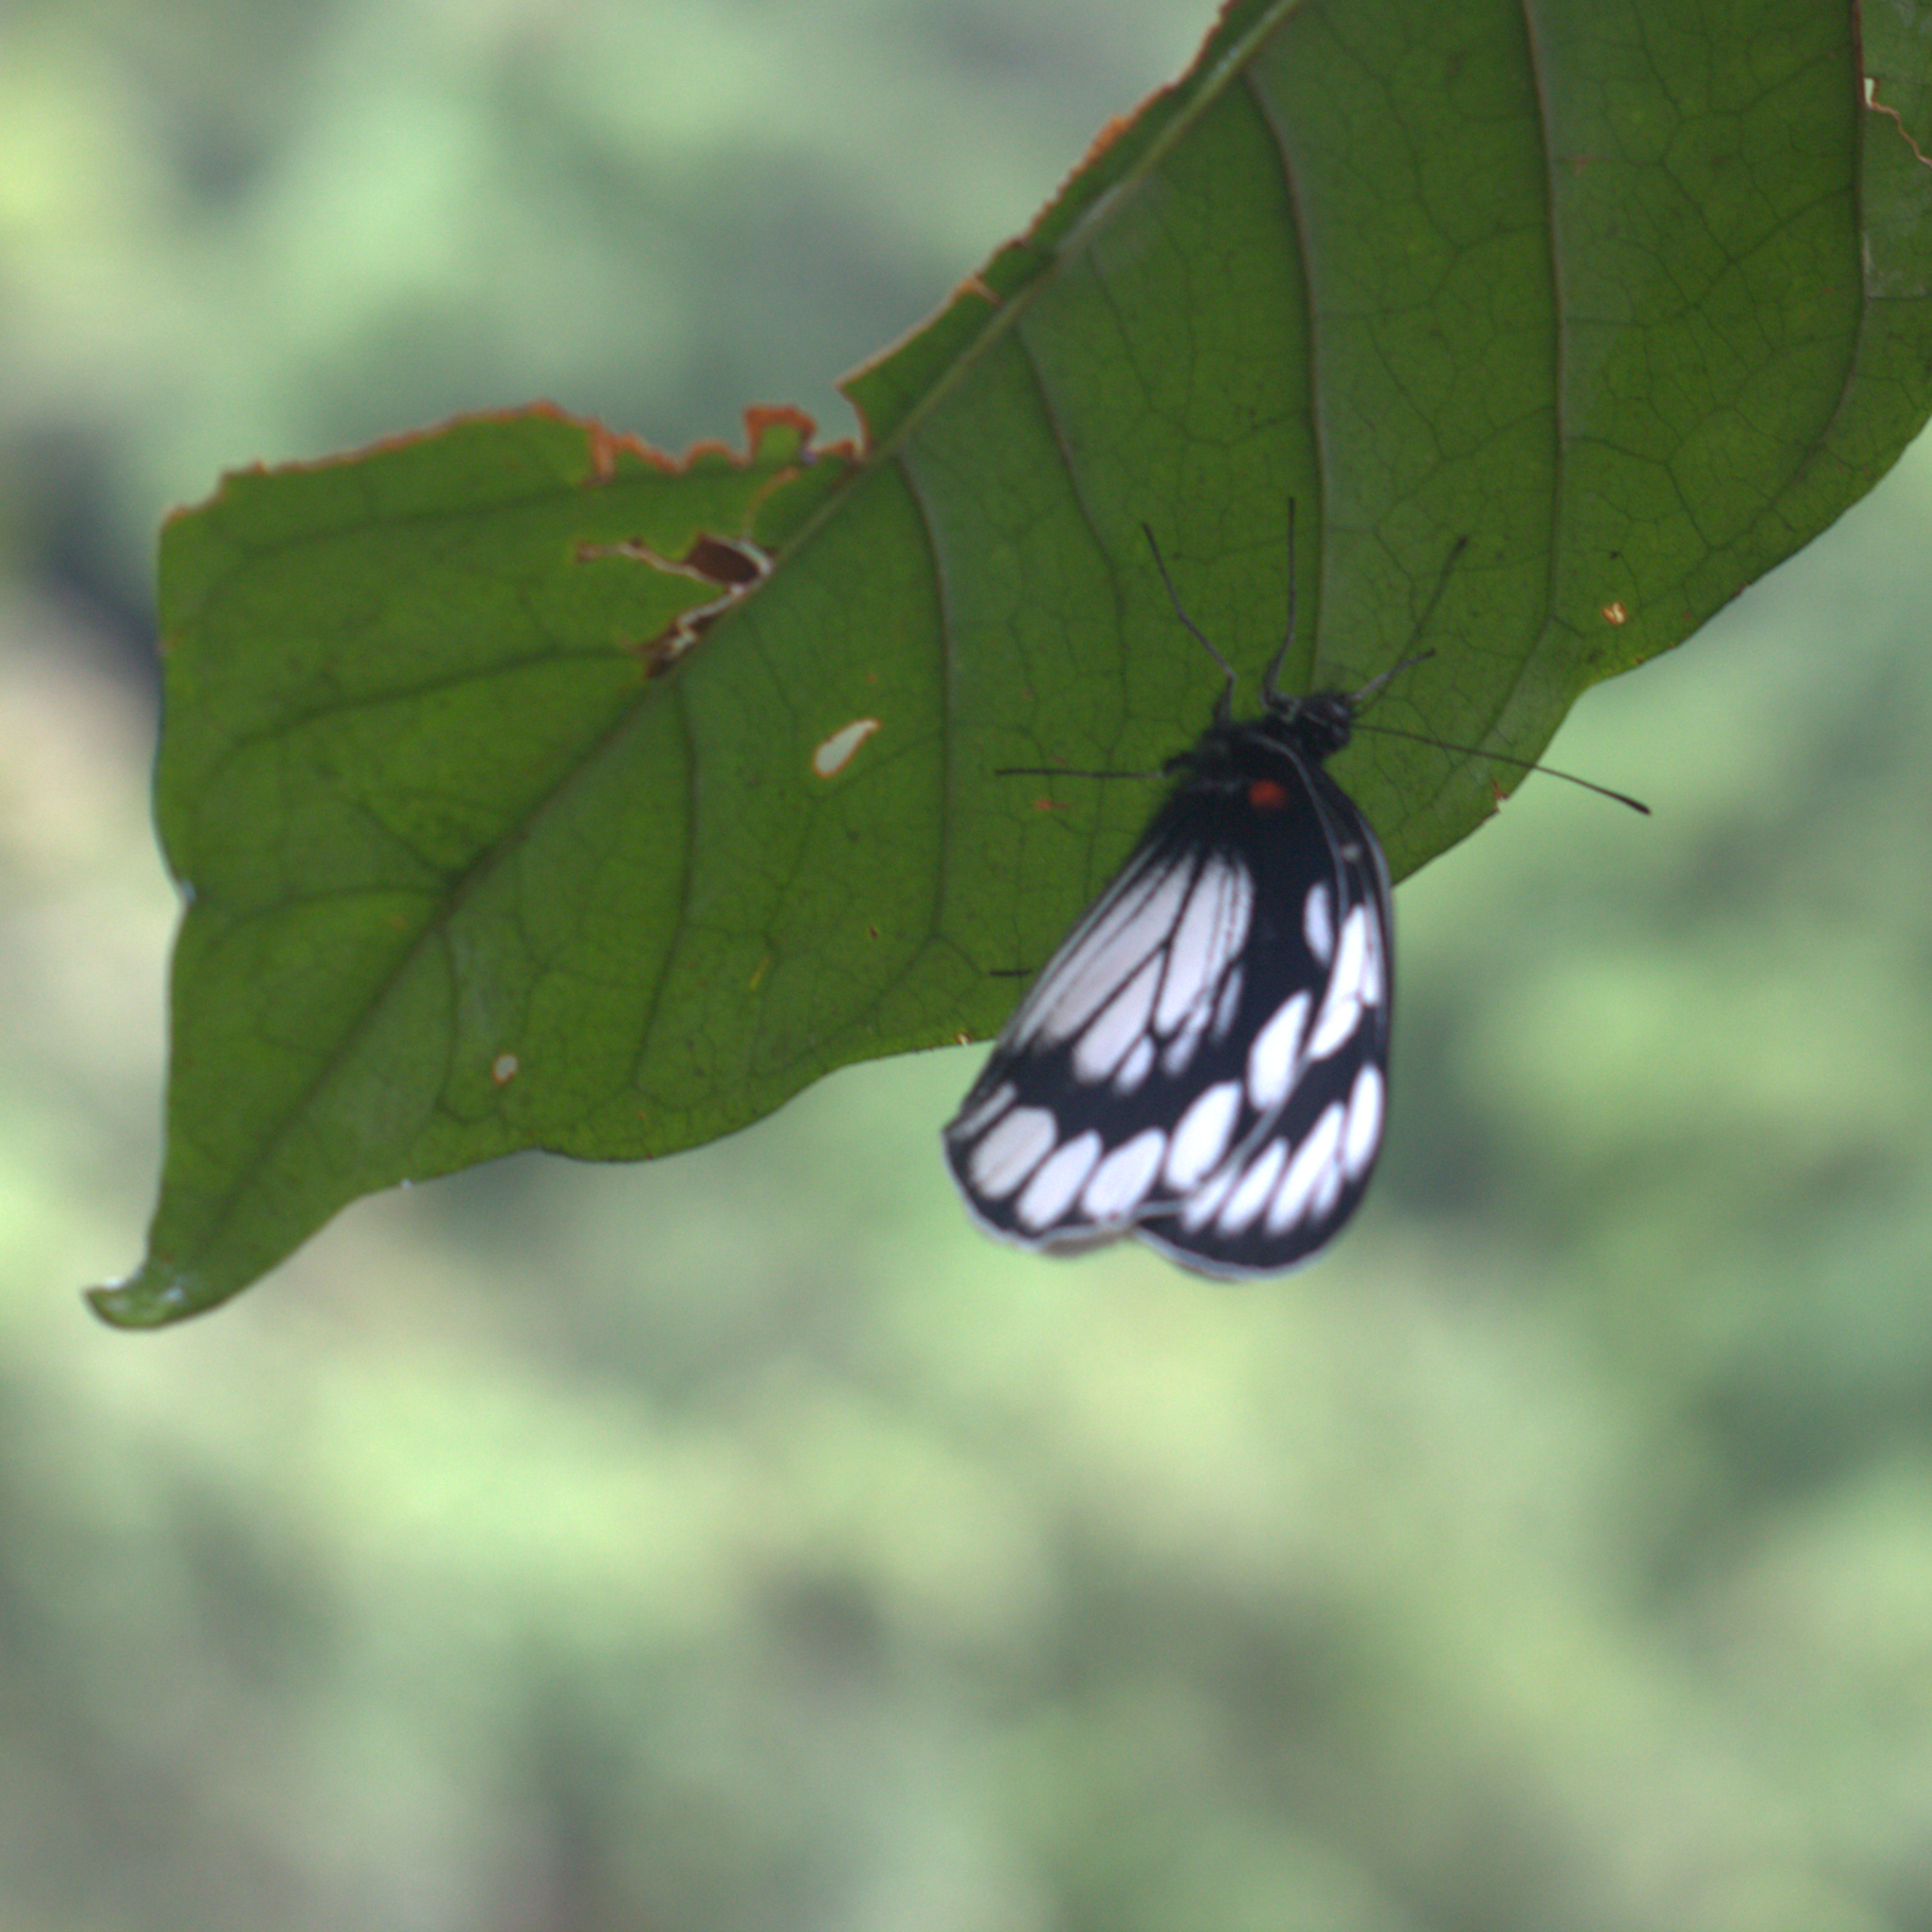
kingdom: Animalia
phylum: Arthropoda
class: Insecta
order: Lepidoptera
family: Pieridae
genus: Delias
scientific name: Delias diaphana
